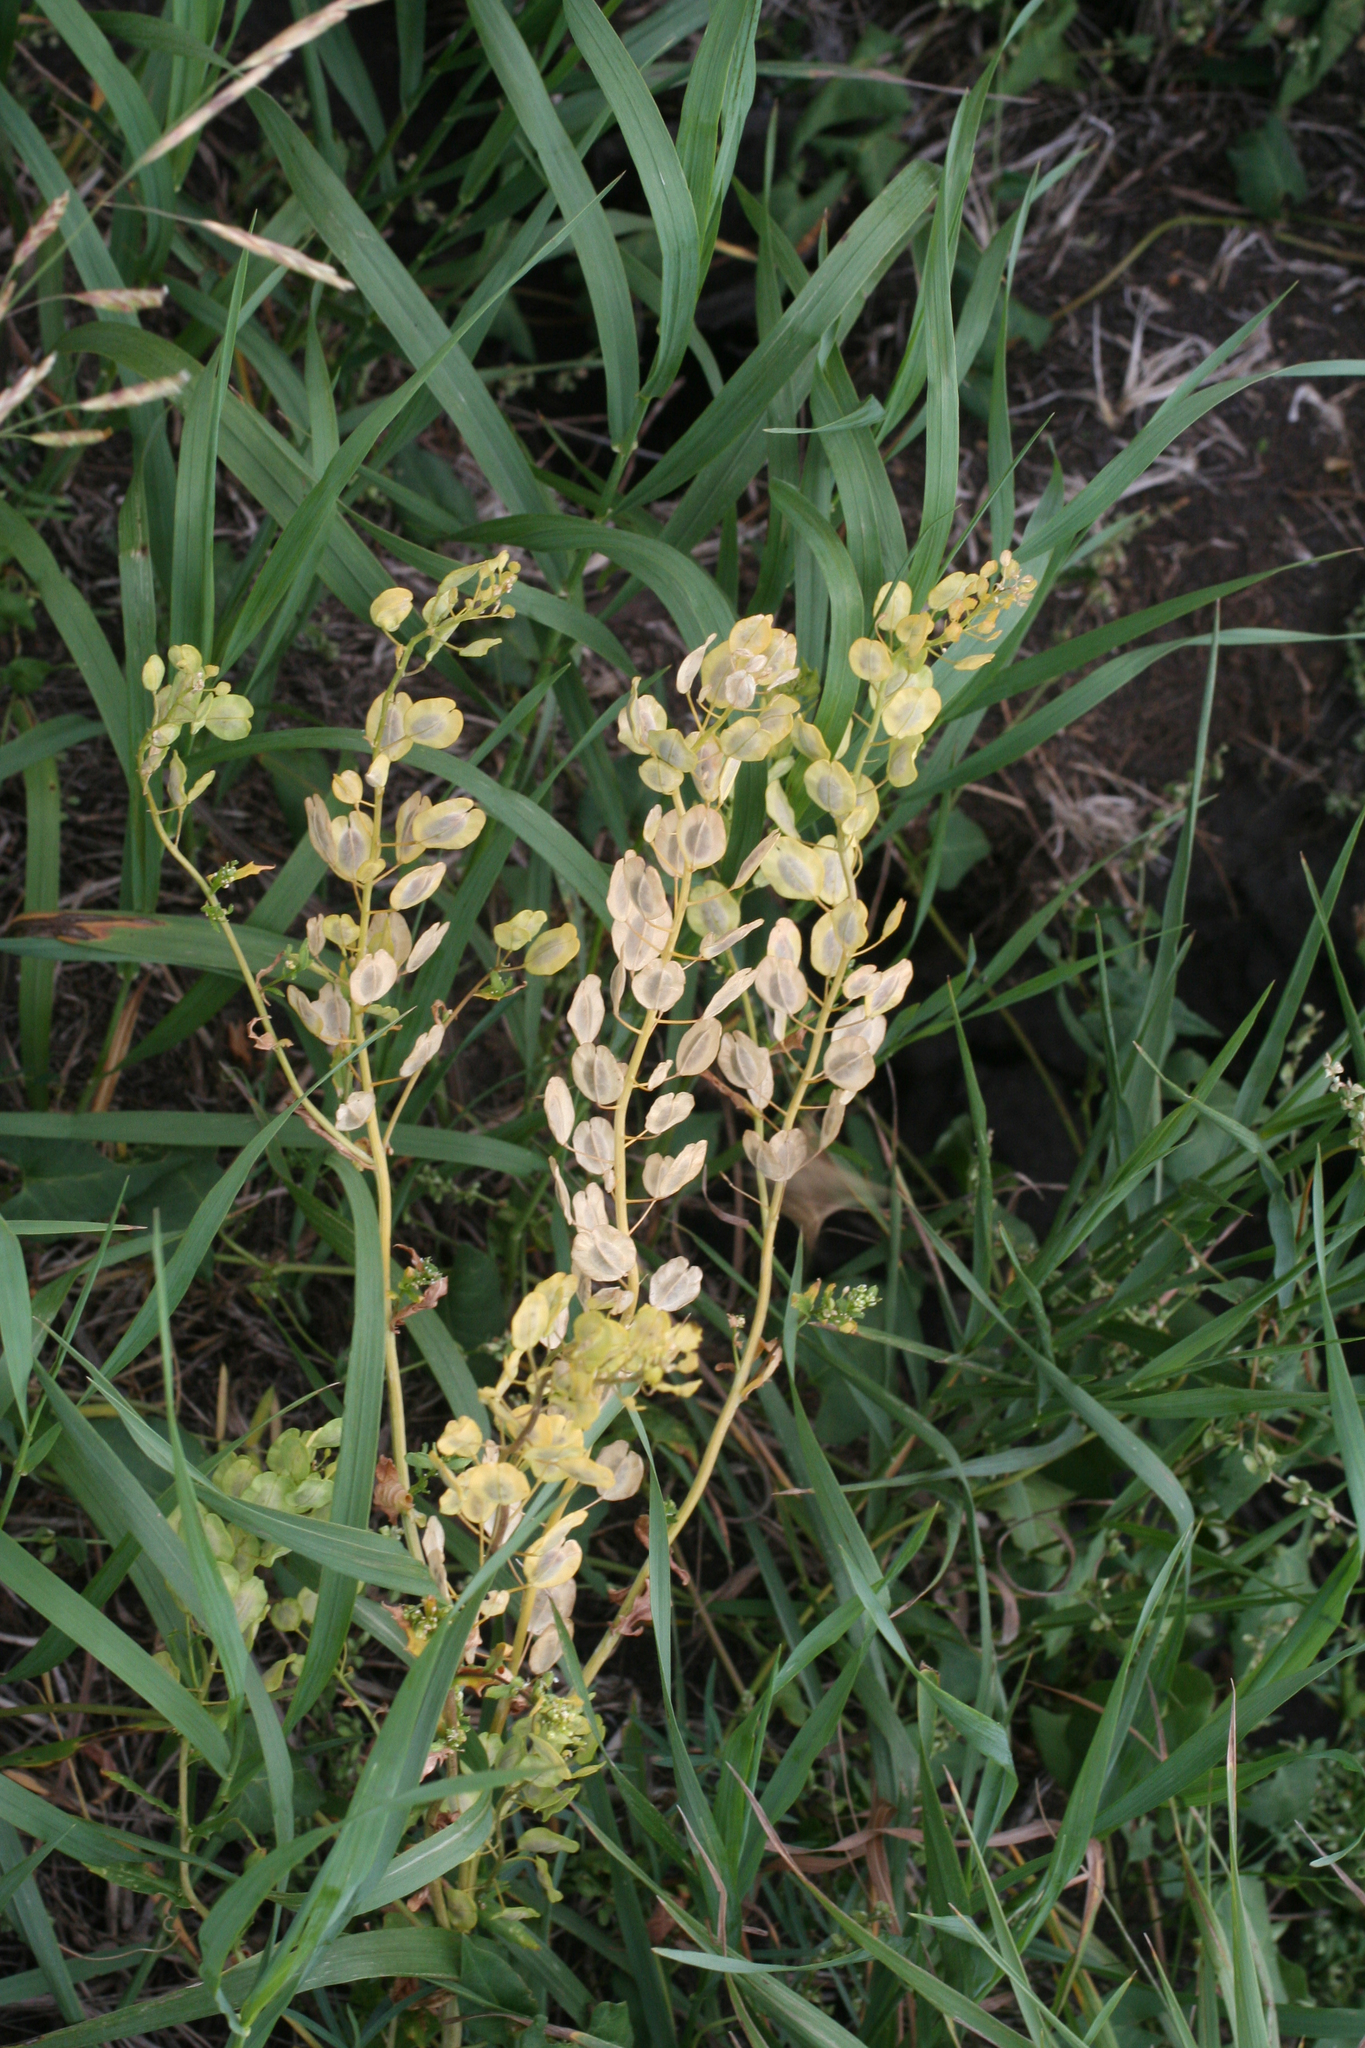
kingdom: Plantae
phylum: Tracheophyta
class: Magnoliopsida
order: Brassicales
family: Brassicaceae
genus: Thlaspi
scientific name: Thlaspi arvense
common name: Field pennycress
